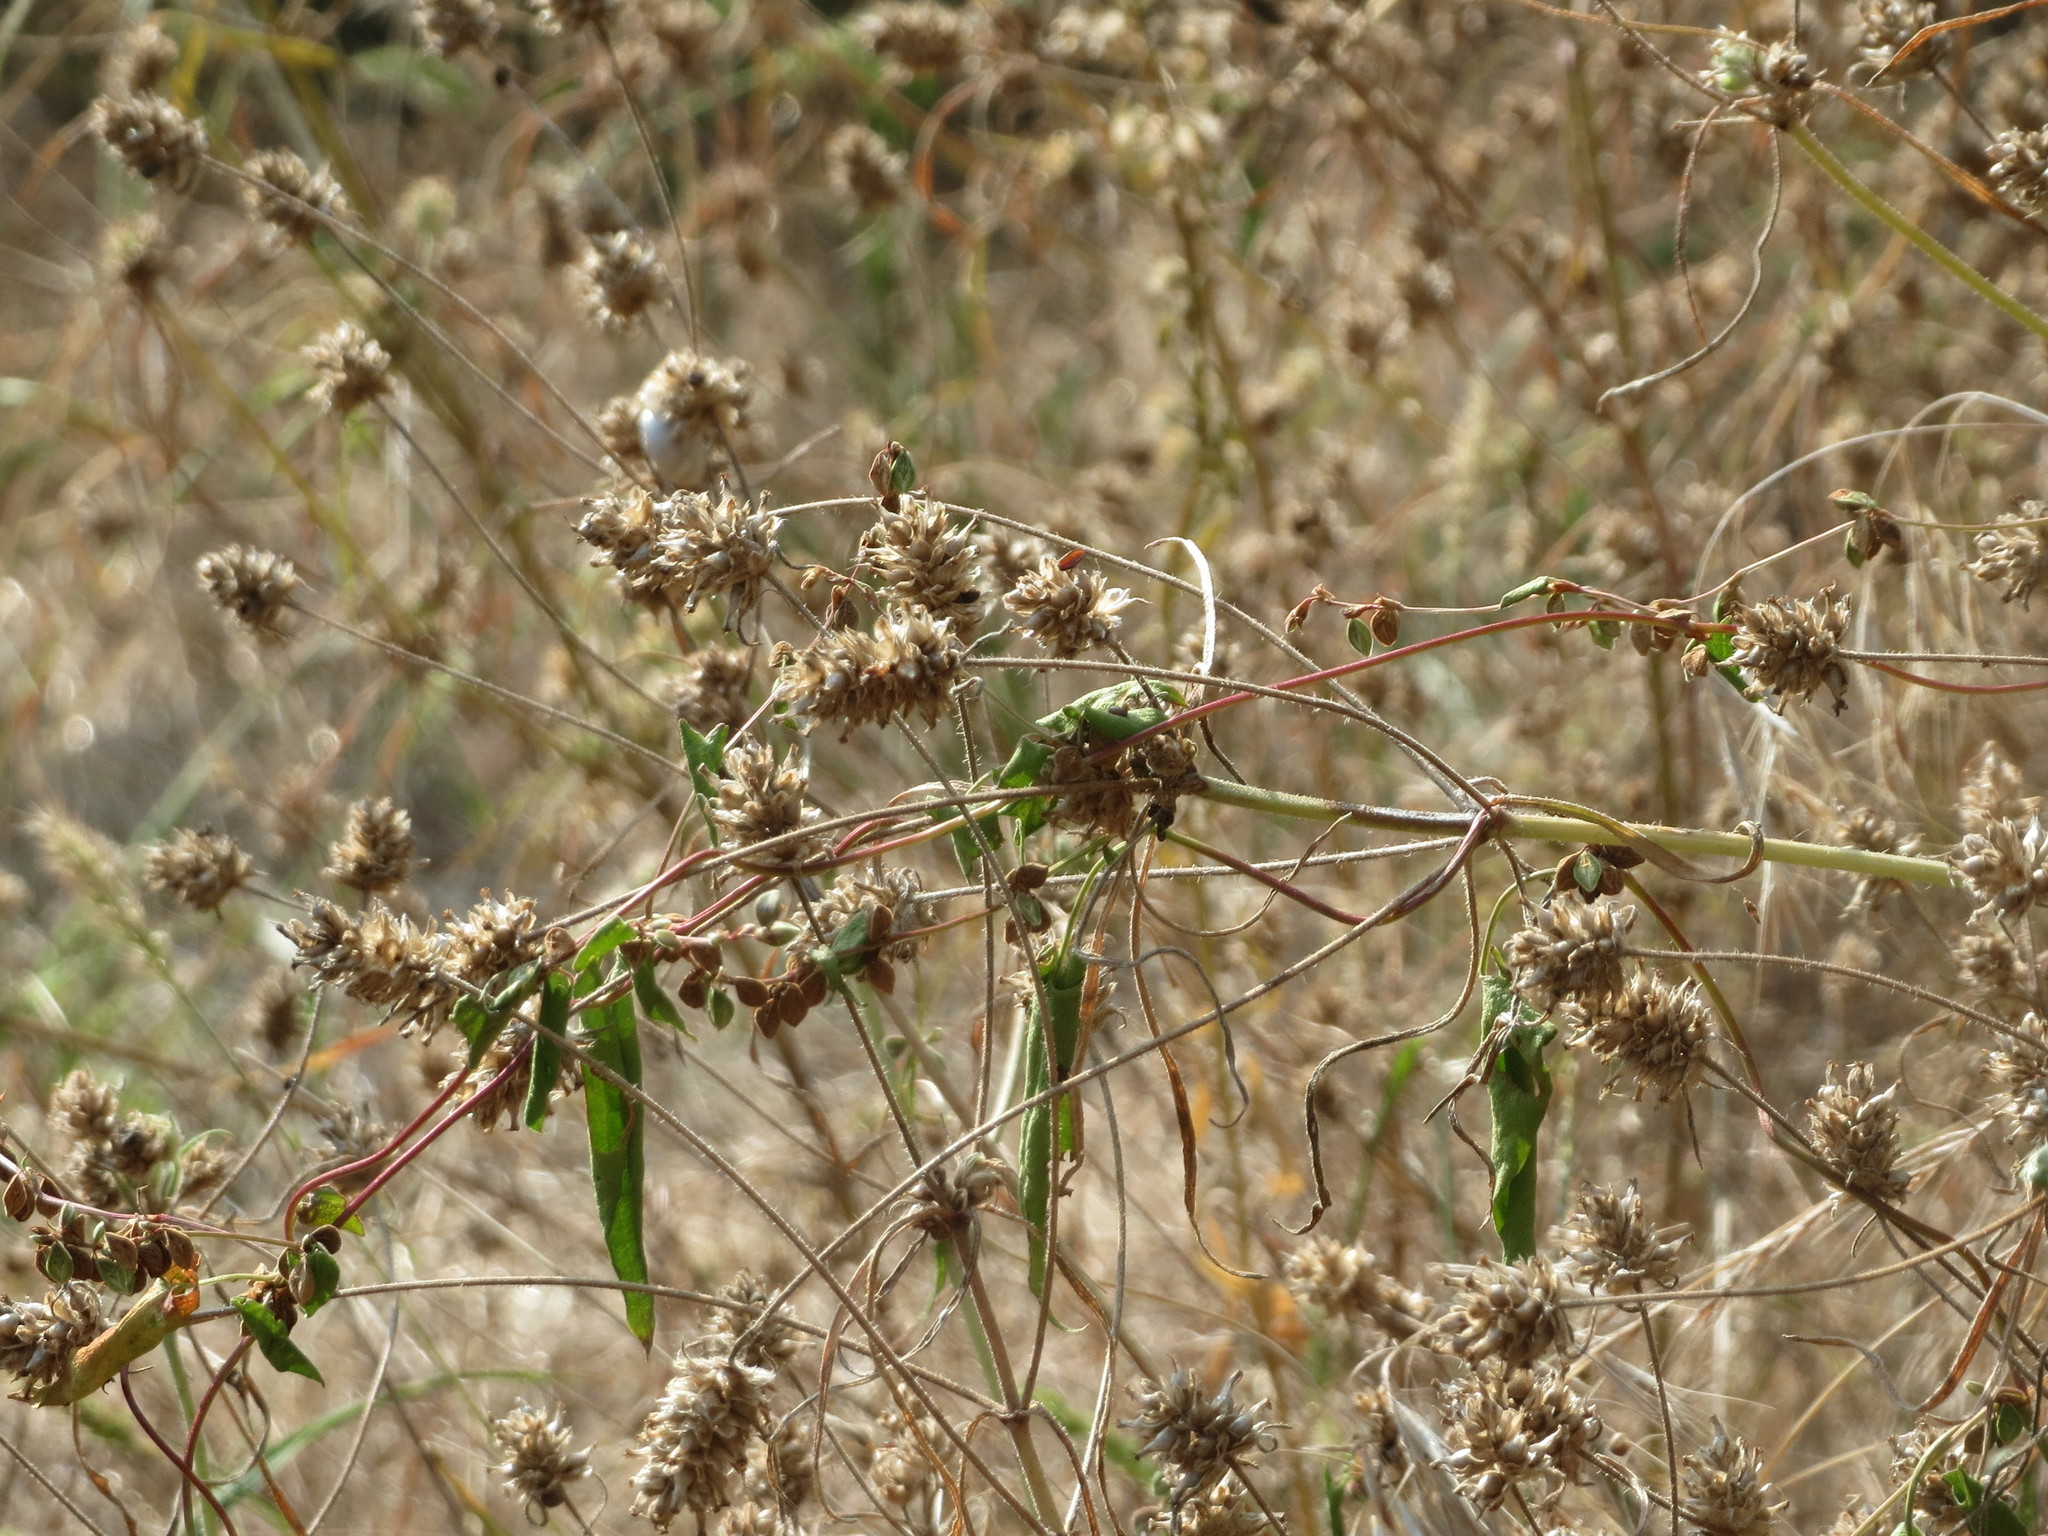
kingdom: Plantae
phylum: Tracheophyta
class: Magnoliopsida
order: Lamiales
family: Plantaginaceae
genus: Plantago
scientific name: Plantago arenaria
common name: Branched plantain
